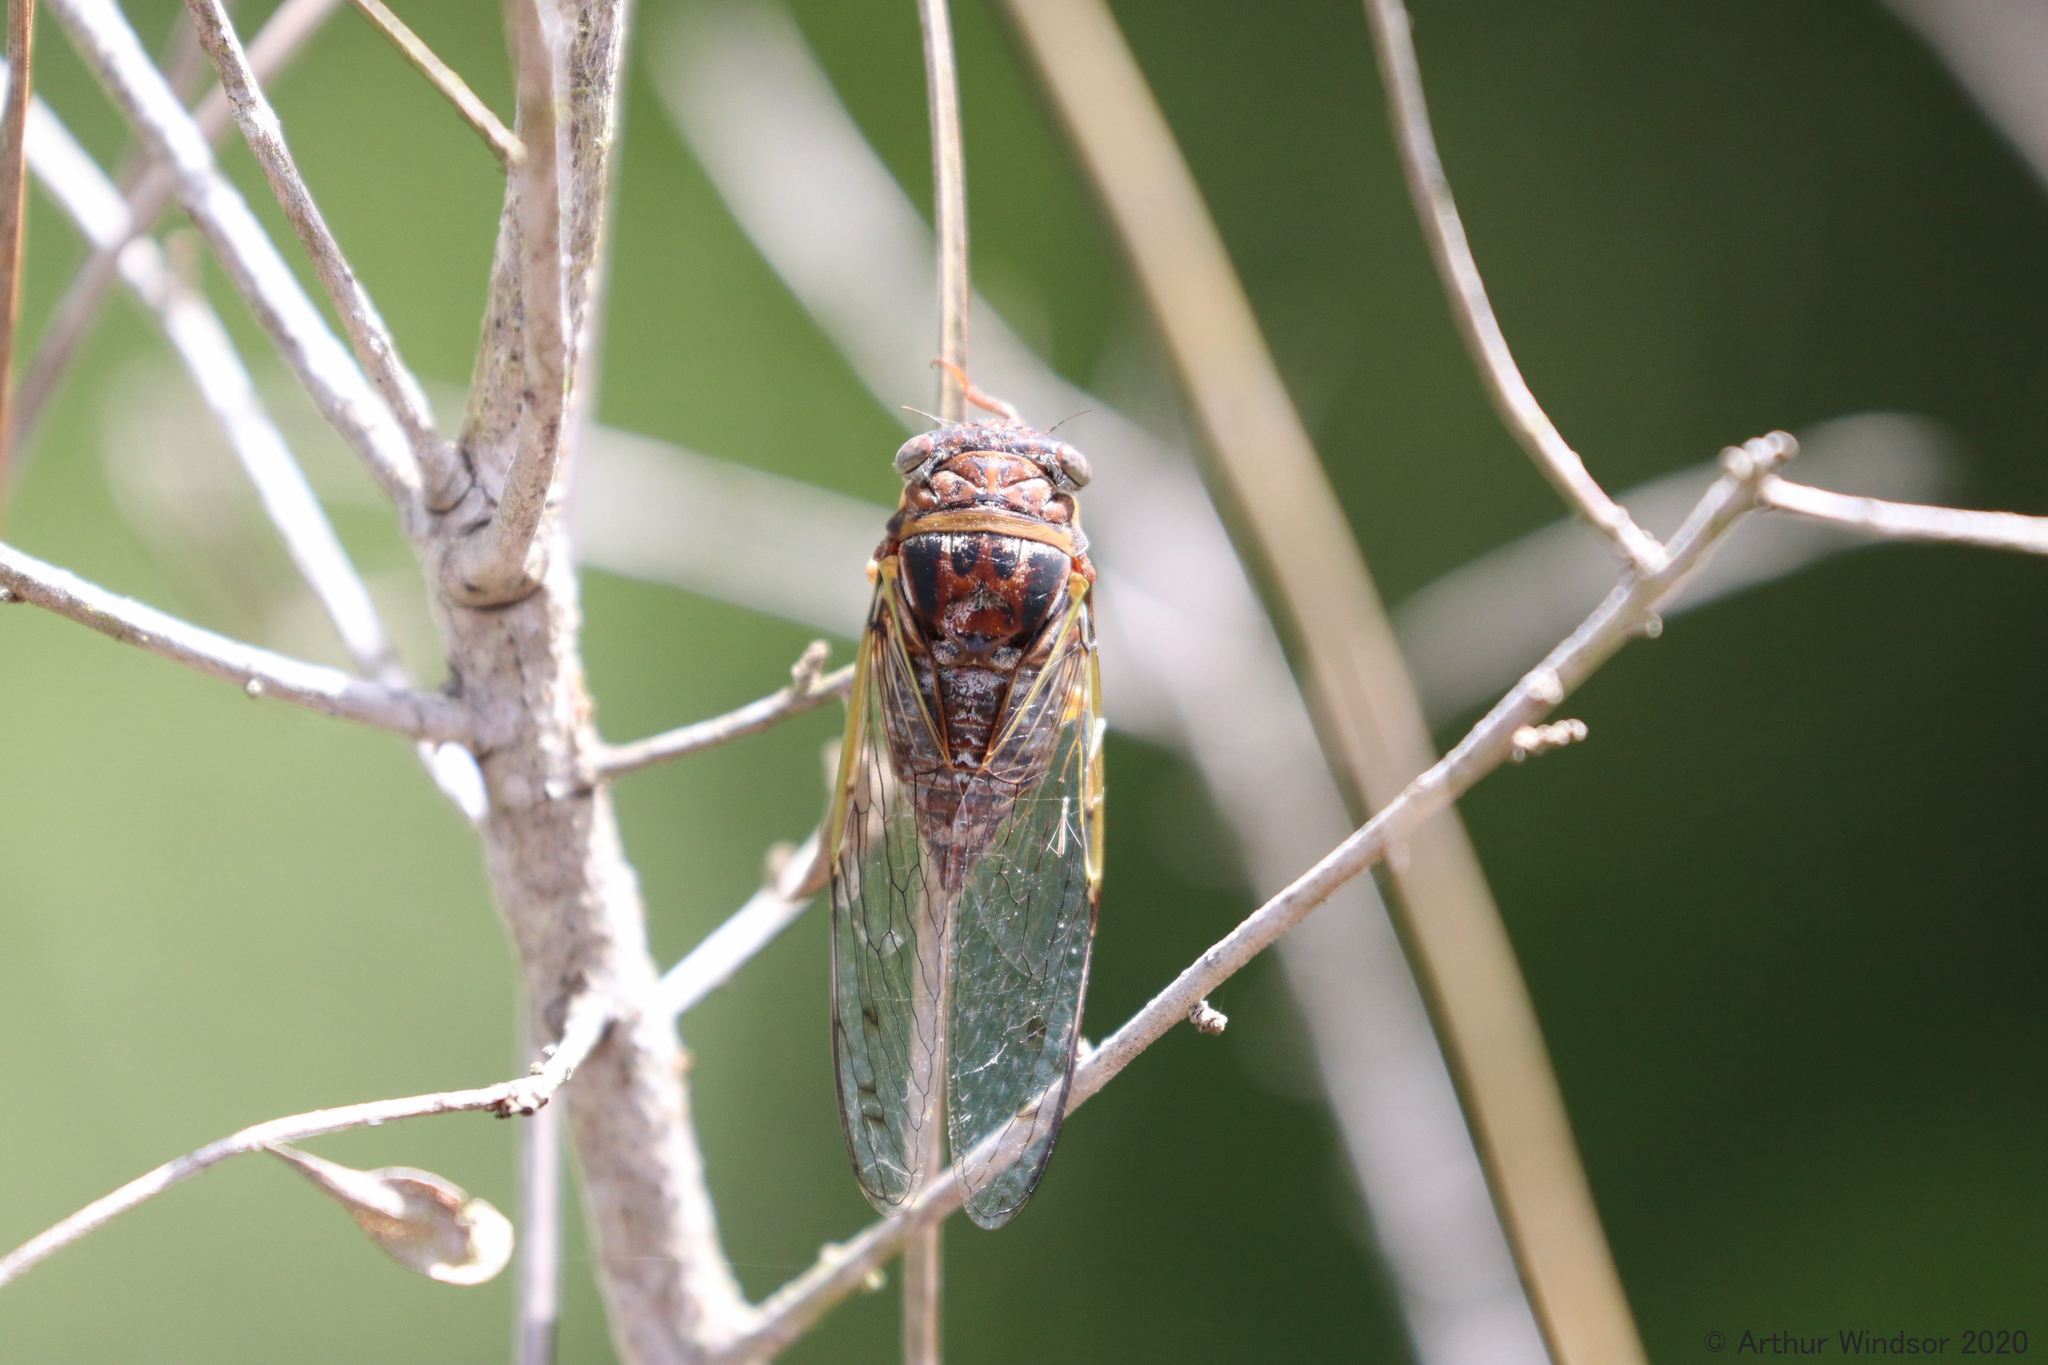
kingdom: Animalia
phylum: Arthropoda
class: Insecta
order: Hemiptera
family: Cicadidae
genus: Diceroprocta
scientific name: Diceroprocta olympusa
